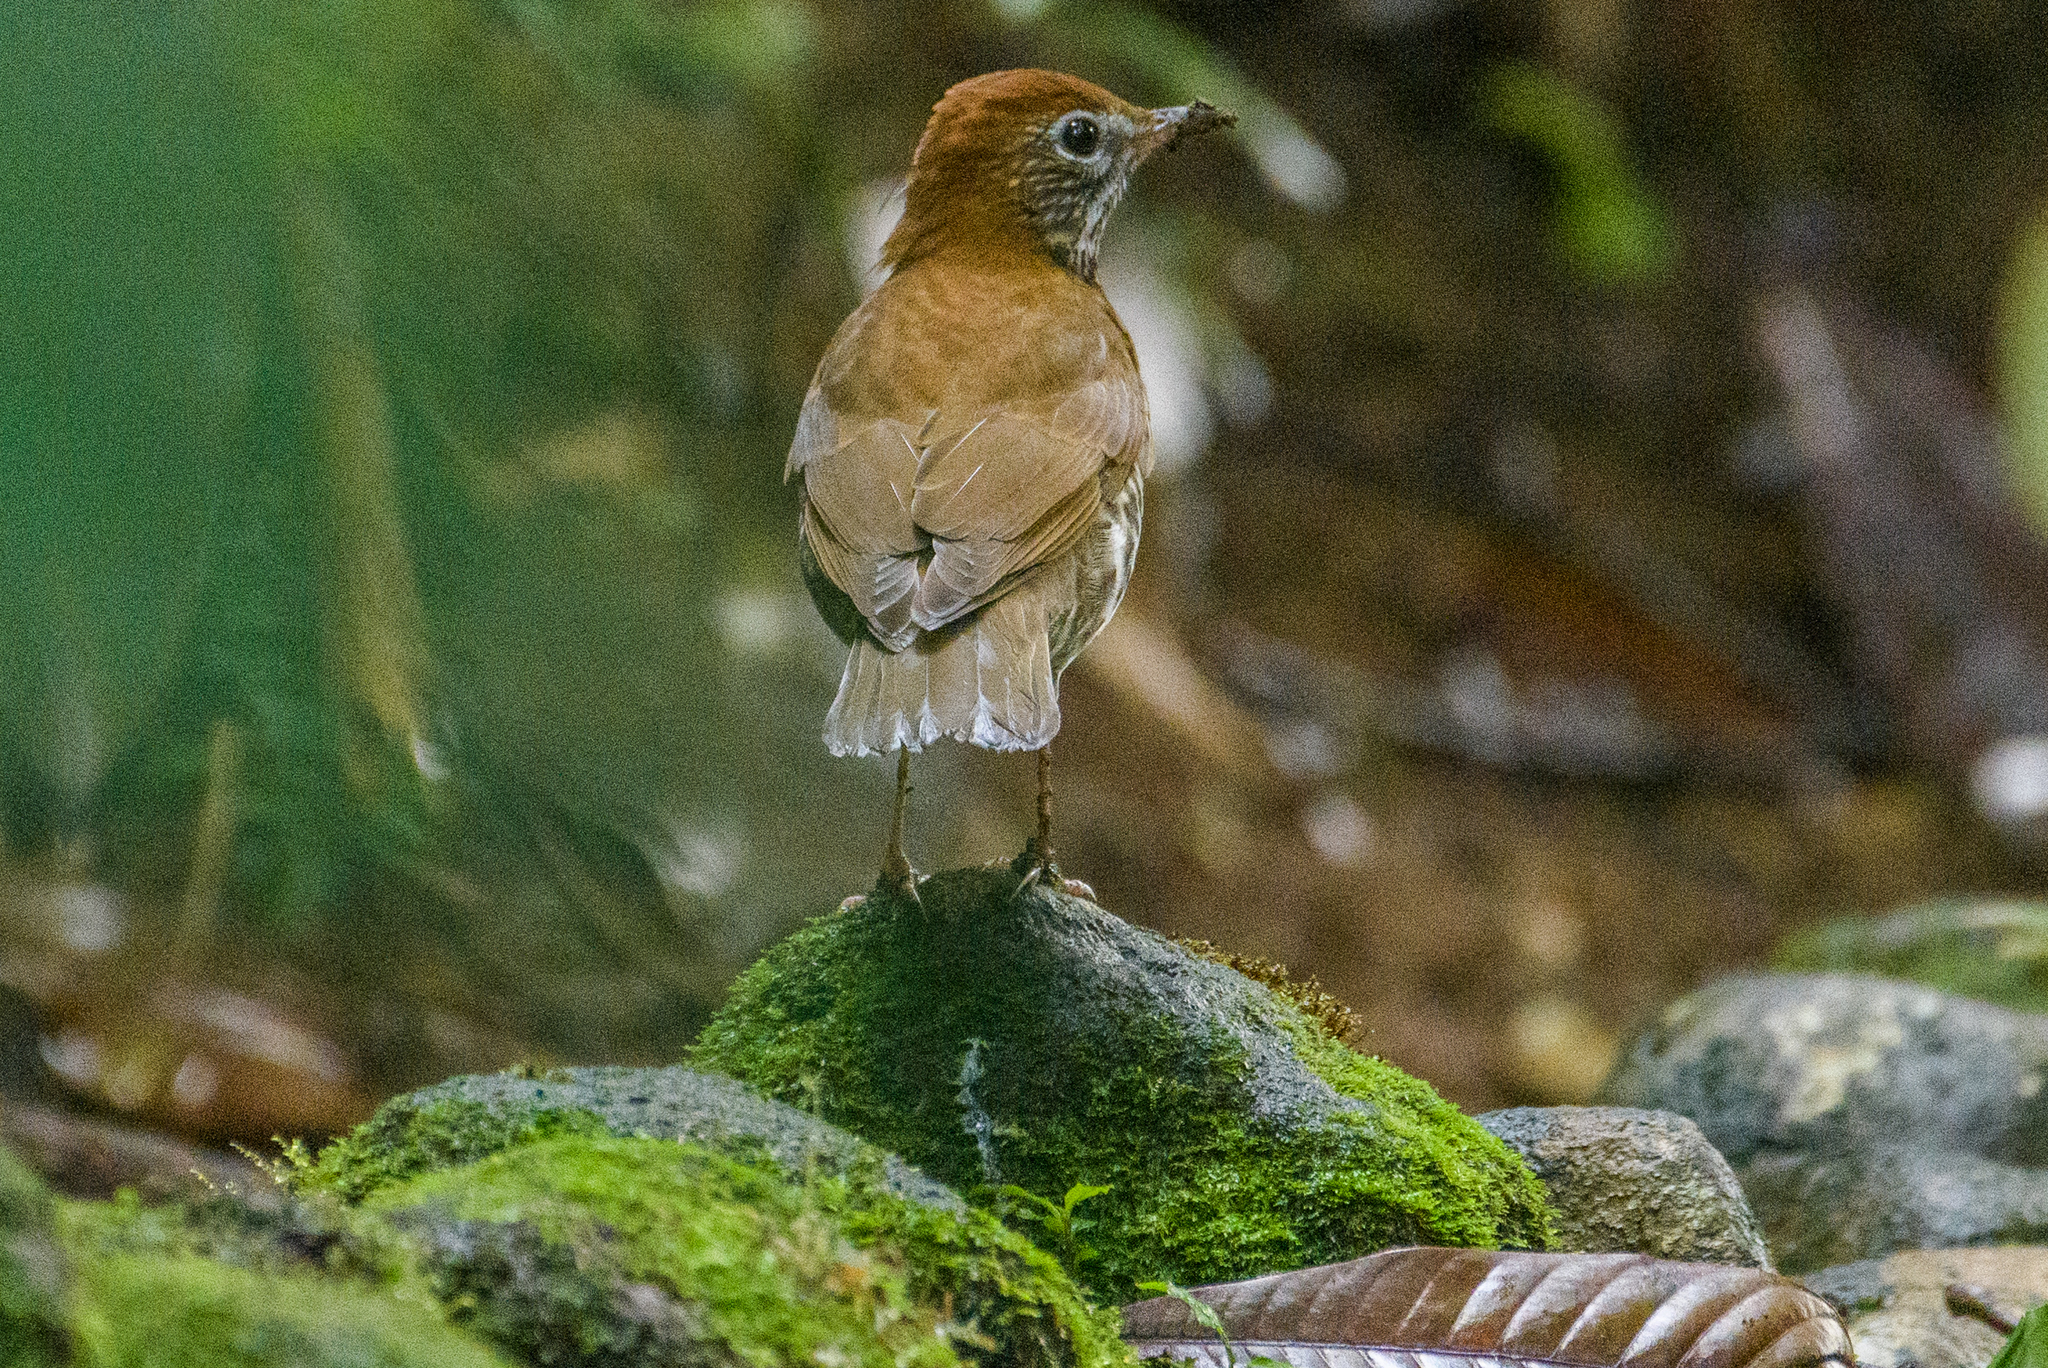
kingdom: Animalia
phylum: Chordata
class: Aves
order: Passeriformes
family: Turdidae
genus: Hylocichla
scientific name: Hylocichla mustelina
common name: Wood thrush
